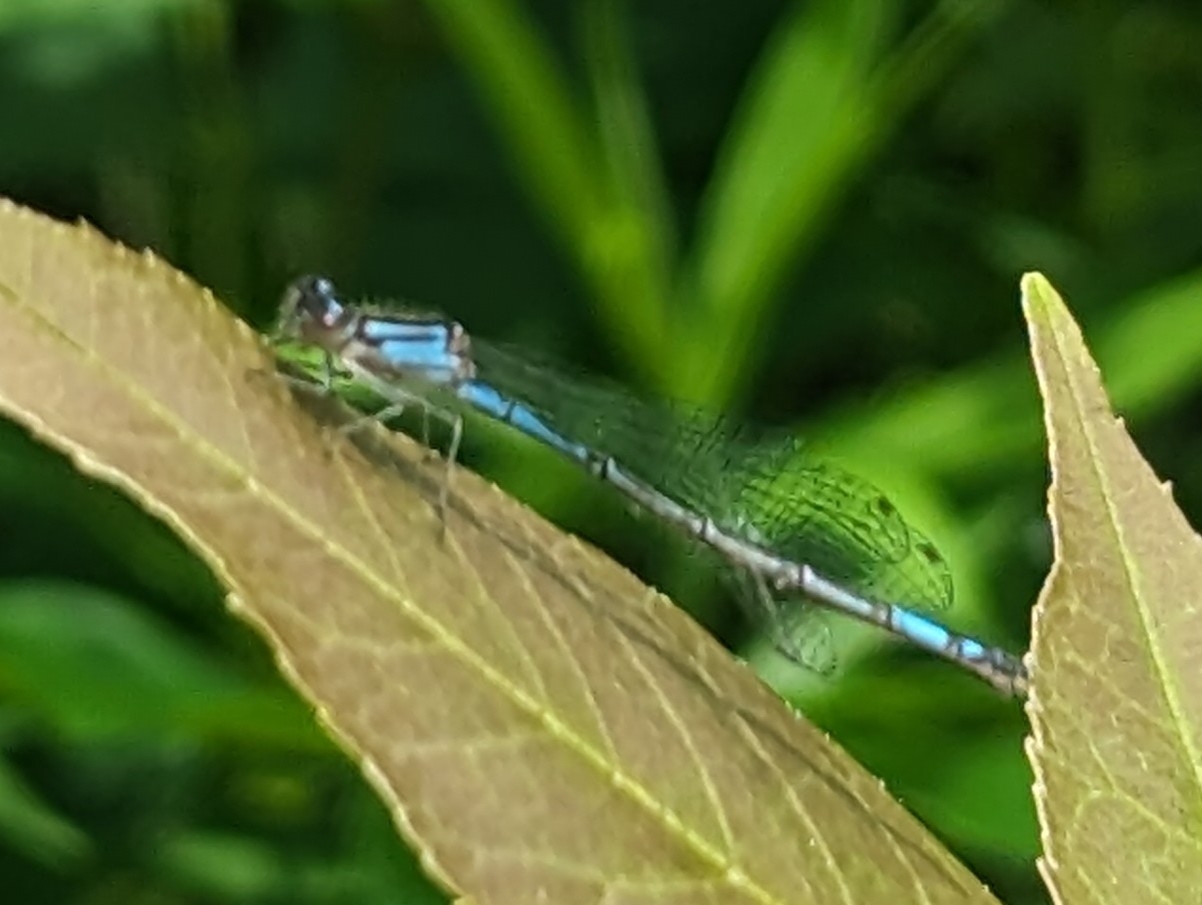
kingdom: Animalia
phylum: Arthropoda
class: Insecta
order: Odonata
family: Coenagrionidae
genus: Enallagma
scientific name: Enallagma aspersum
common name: Azure bluet
